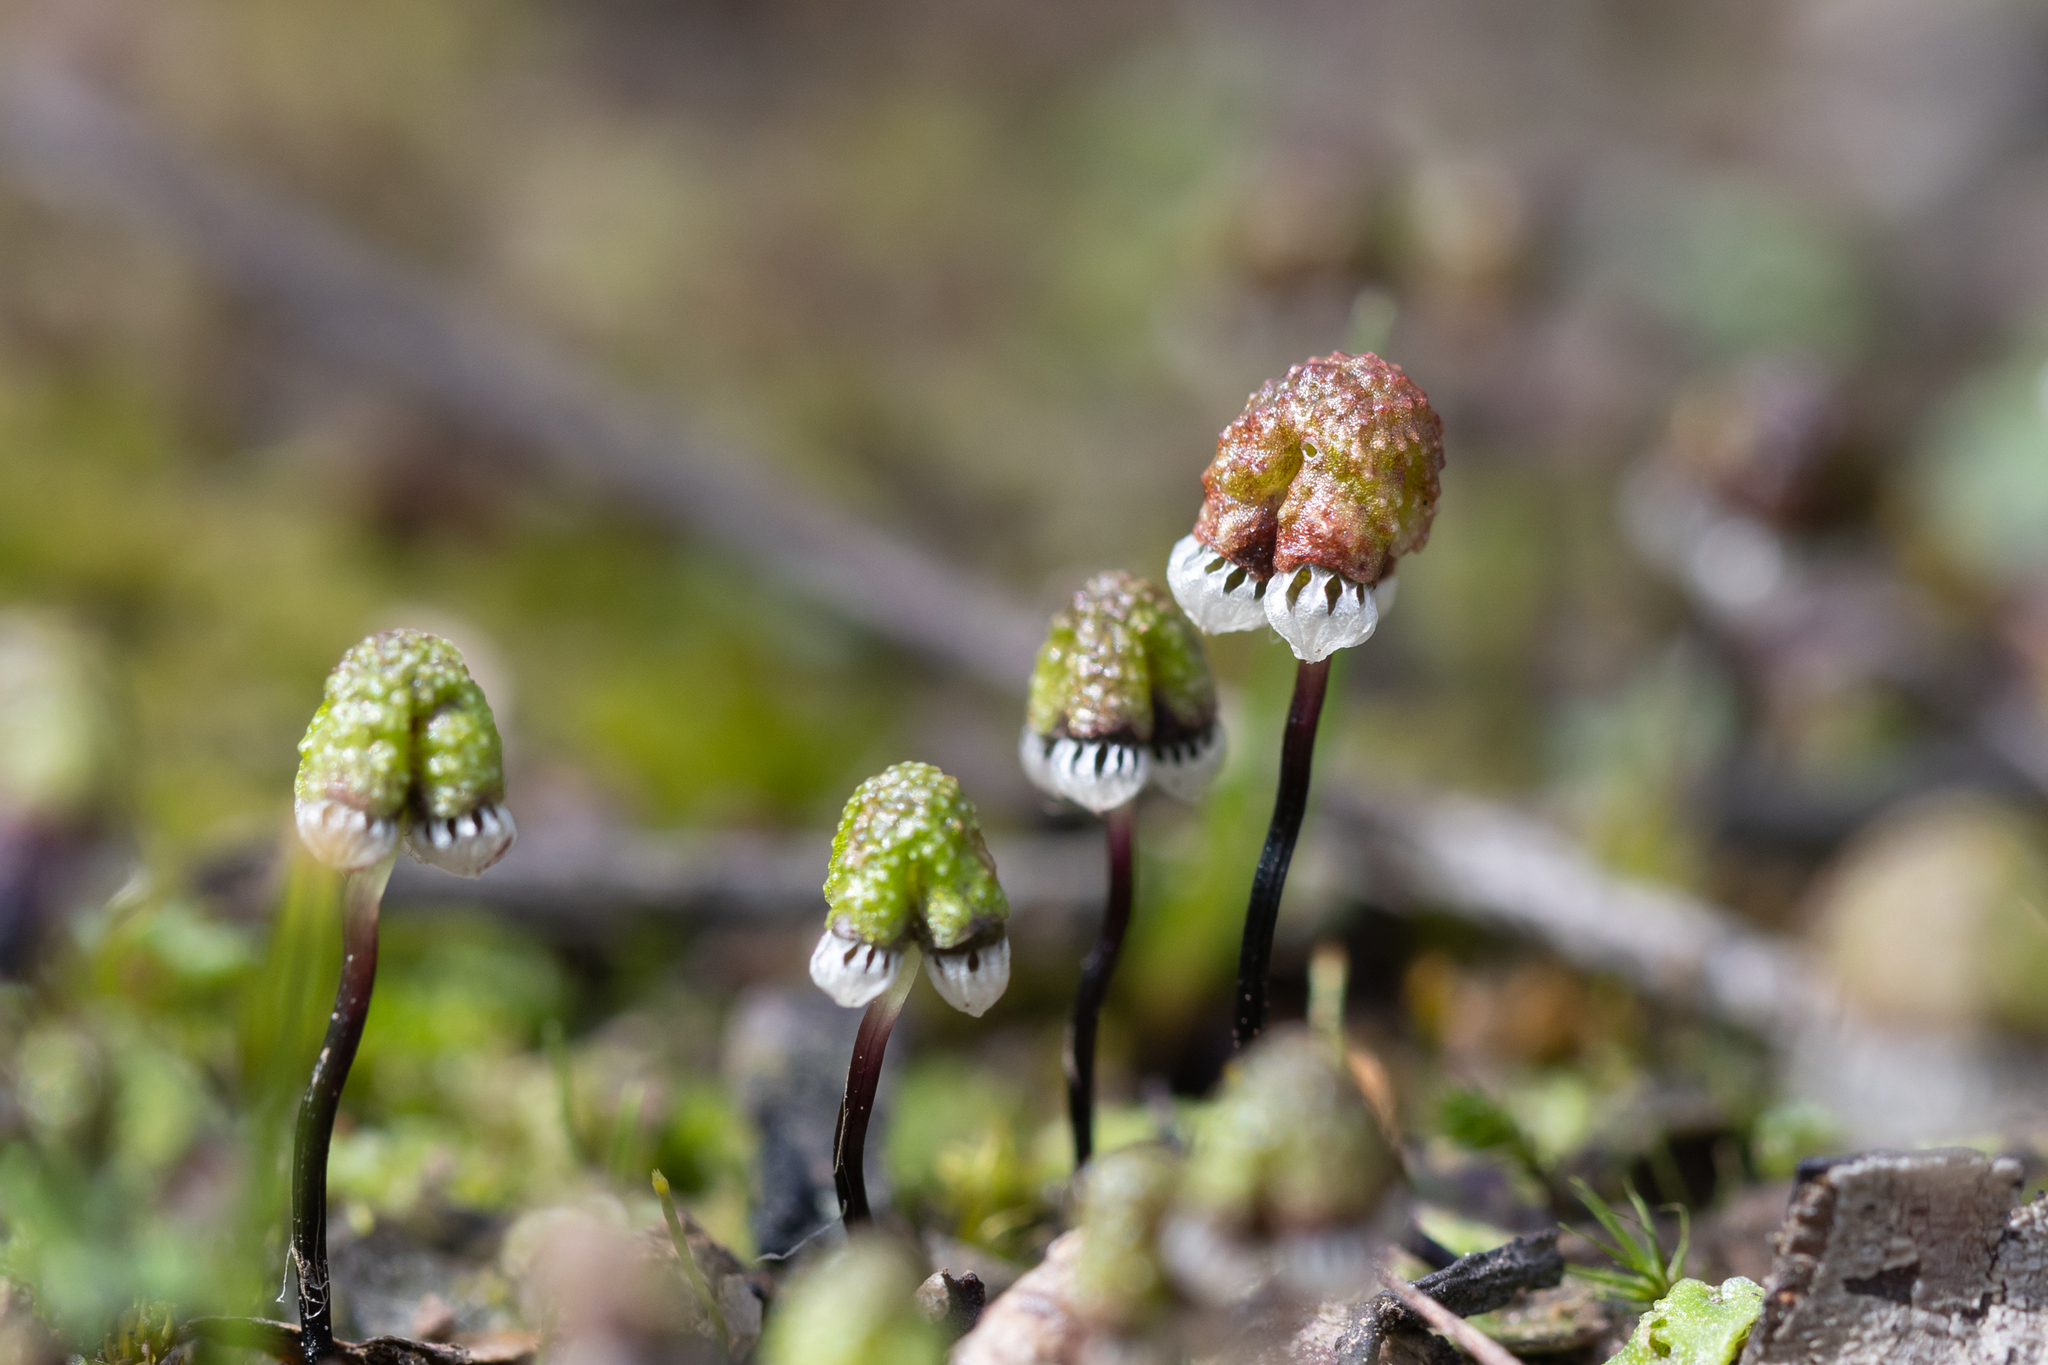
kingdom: Plantae
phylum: Marchantiophyta
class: Marchantiopsida
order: Marchantiales
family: Aytoniaceae
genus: Asterella
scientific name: Asterella drummondii
